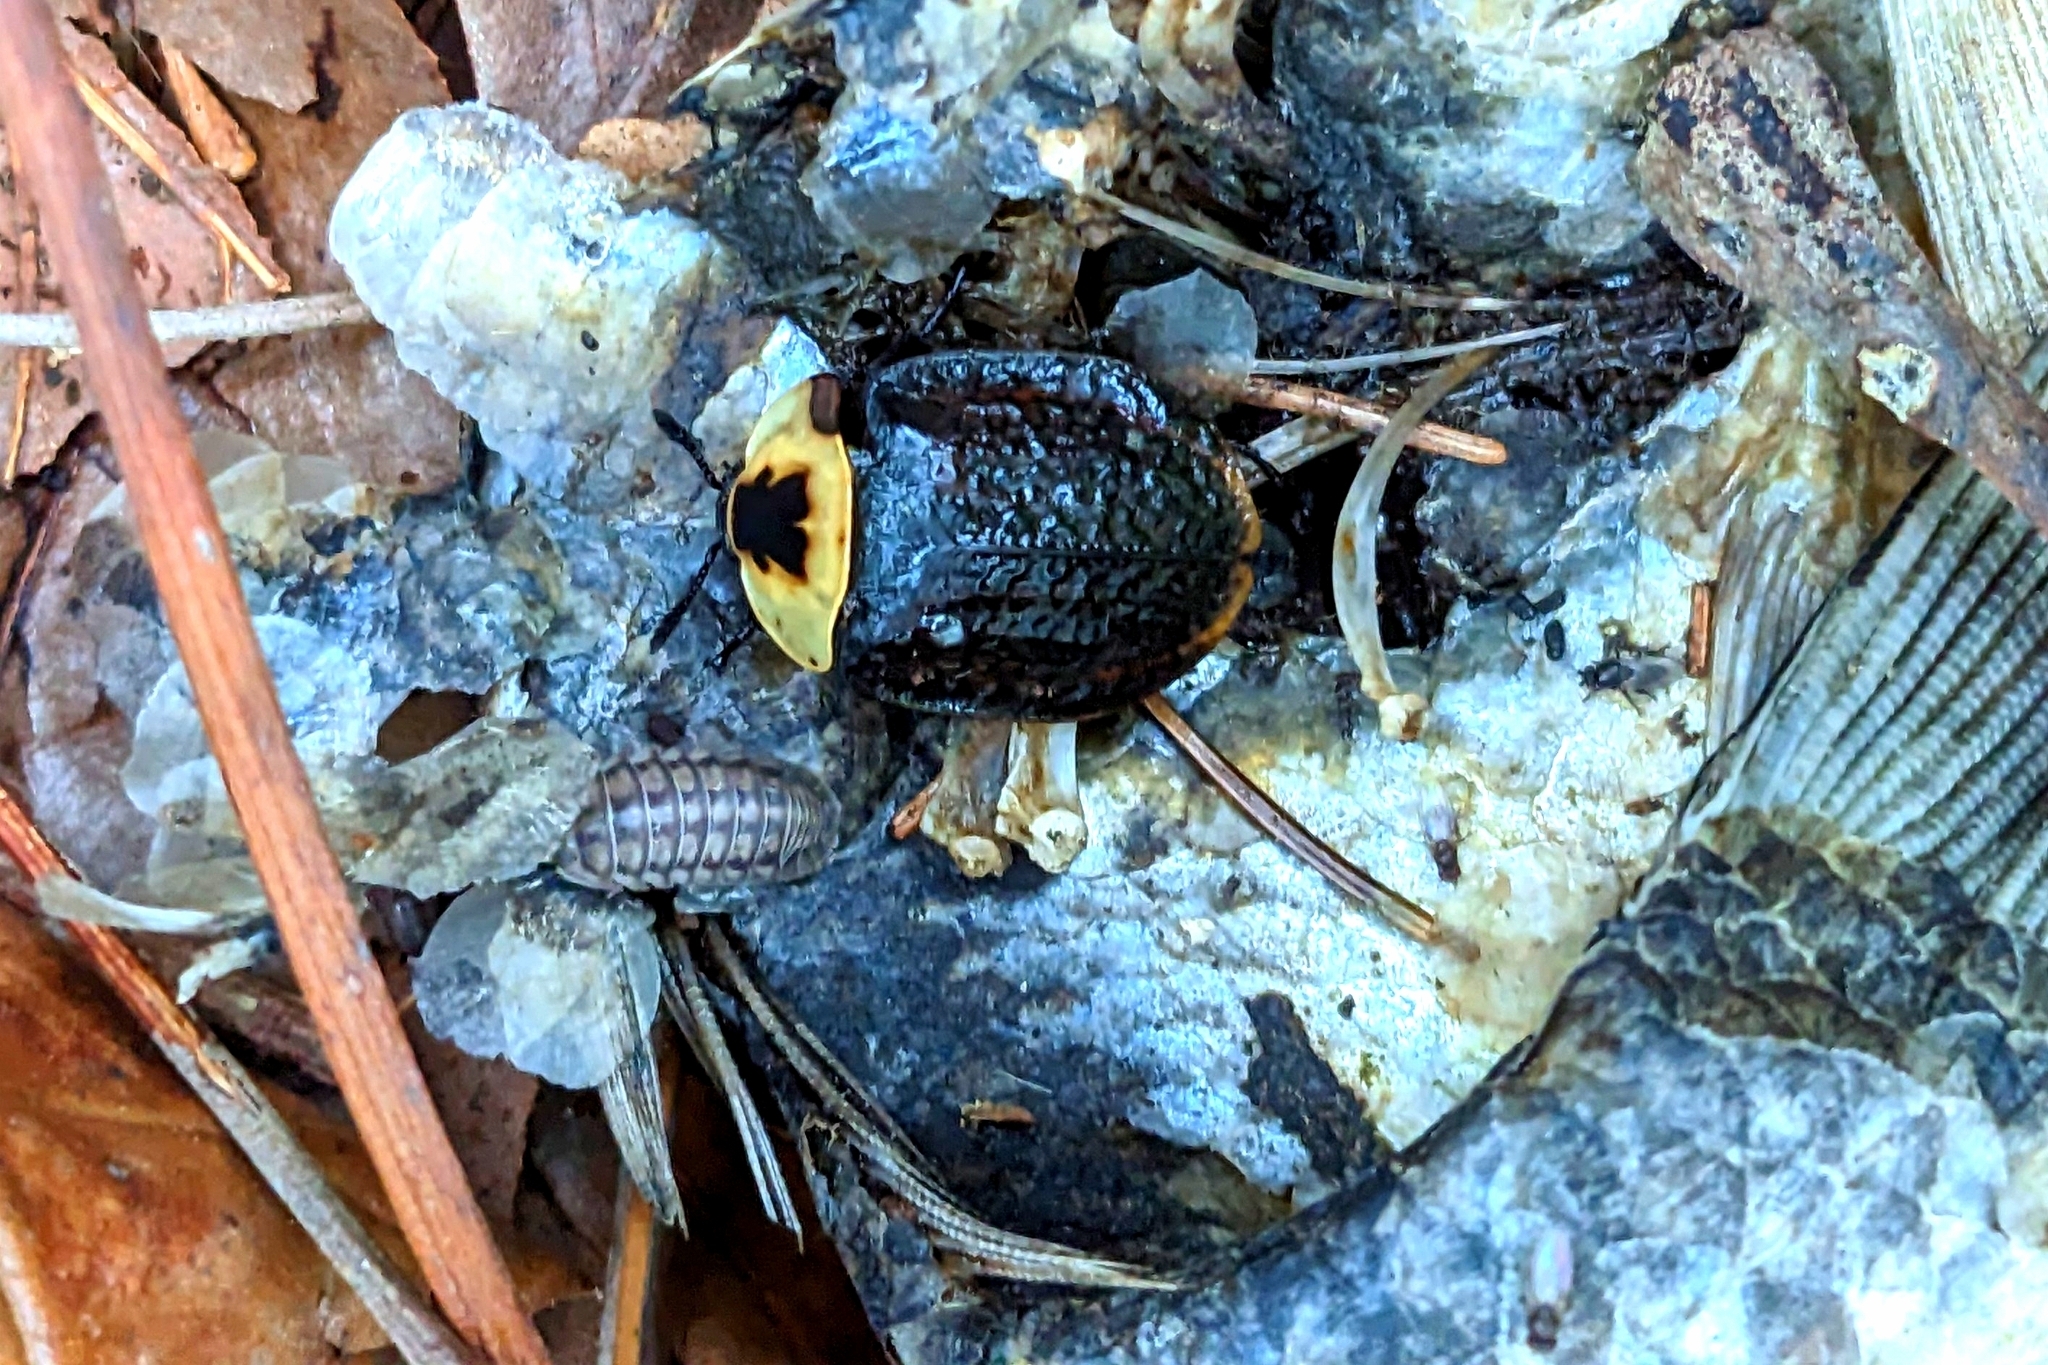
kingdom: Animalia
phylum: Arthropoda
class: Insecta
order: Coleoptera
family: Staphylinidae
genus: Necrophila
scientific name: Necrophila americana
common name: American carrion beetle
